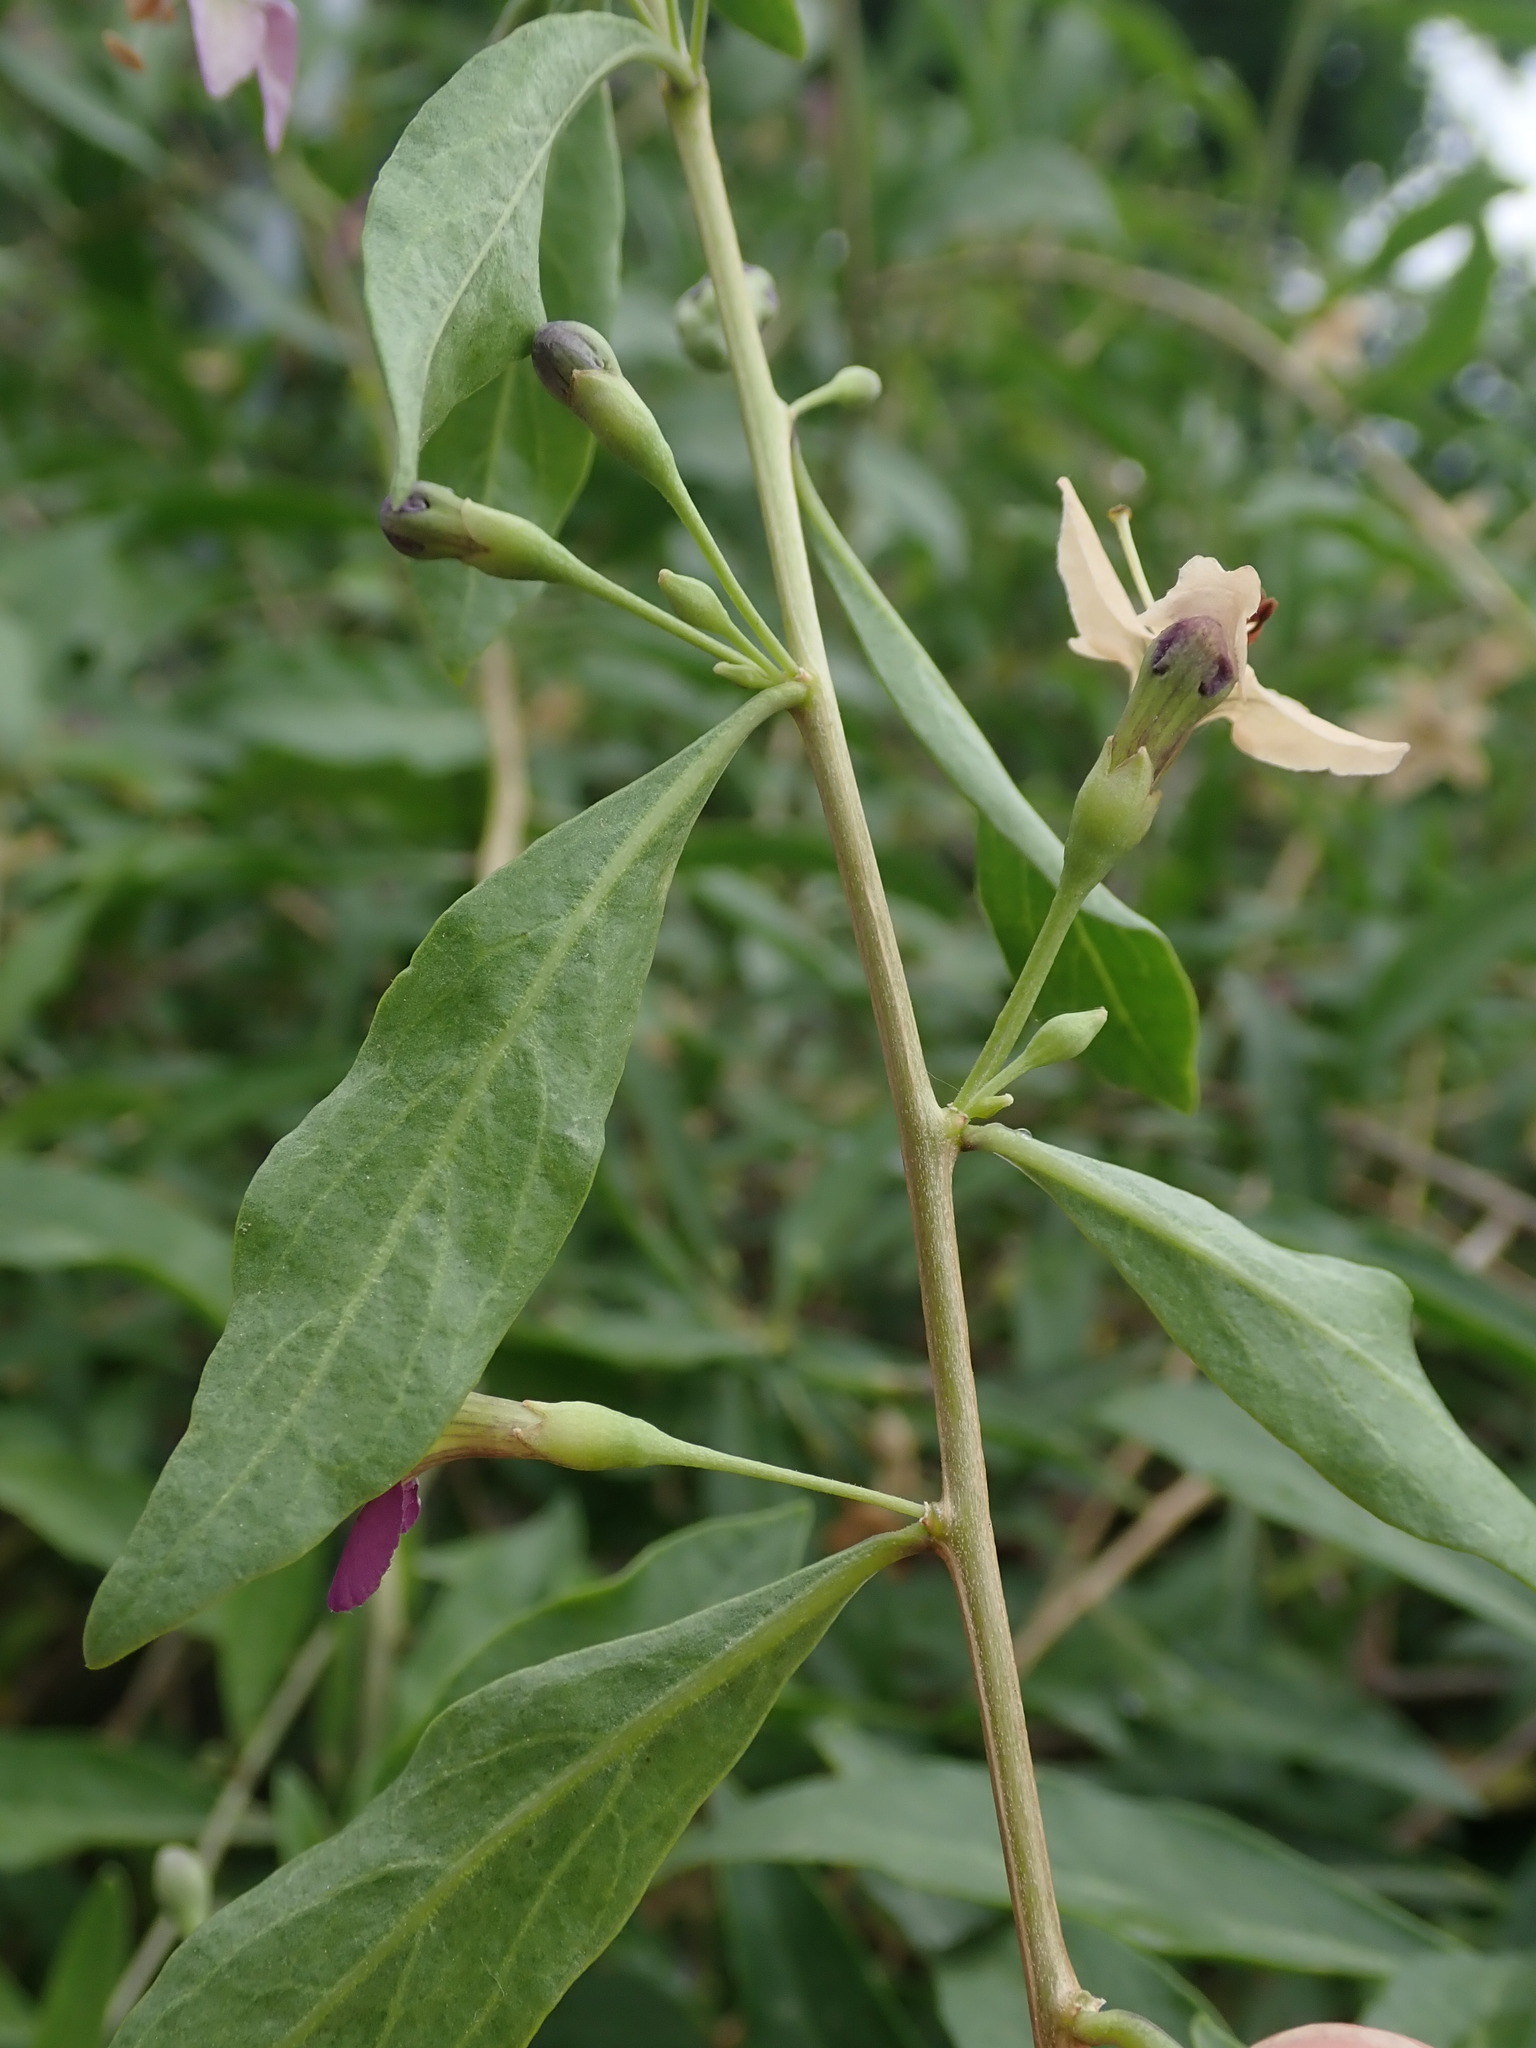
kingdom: Plantae
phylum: Tracheophyta
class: Magnoliopsida
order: Solanales
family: Solanaceae
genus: Lycium
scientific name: Lycium barbarum
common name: Duke of argyll's teaplant
